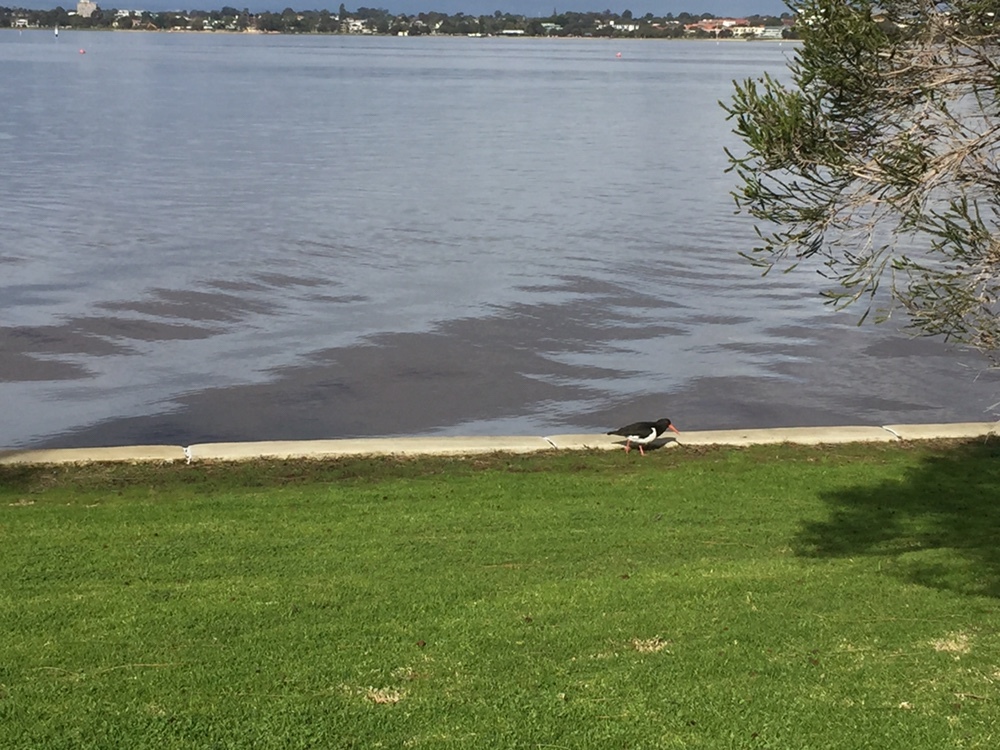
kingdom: Animalia
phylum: Chordata
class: Aves
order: Charadriiformes
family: Haematopodidae
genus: Haematopus
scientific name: Haematopus longirostris
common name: Pied oystercatcher
